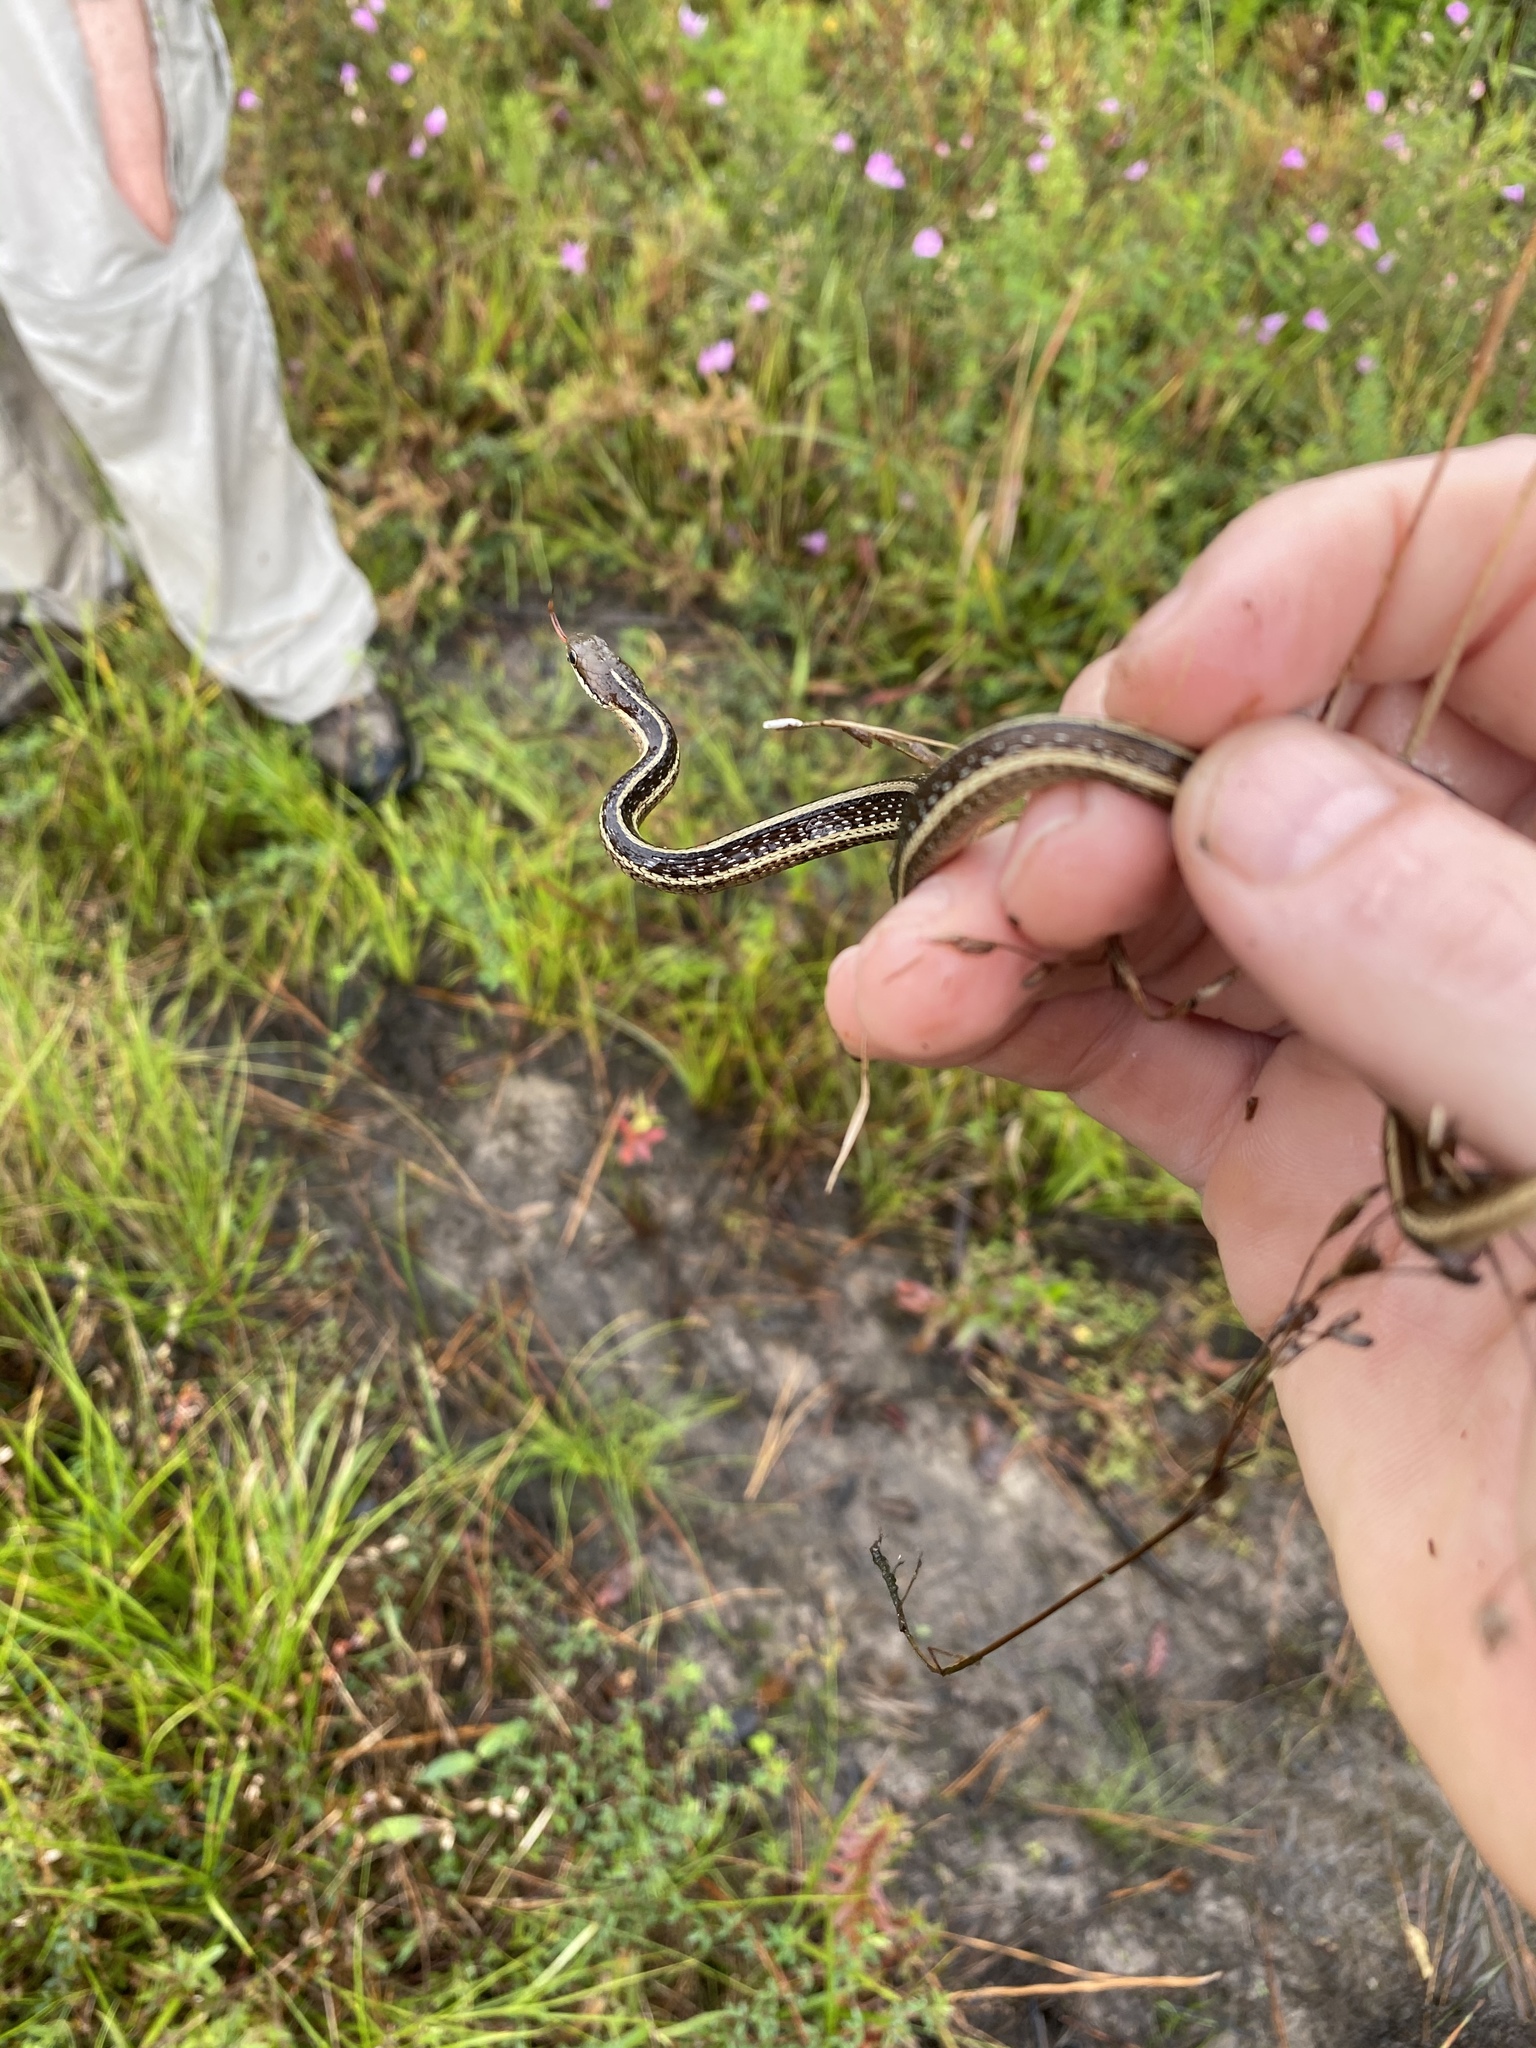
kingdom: Animalia
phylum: Chordata
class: Squamata
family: Colubridae
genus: Thamnophis
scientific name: Thamnophis saurita
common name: Eastern ribbonsnake
